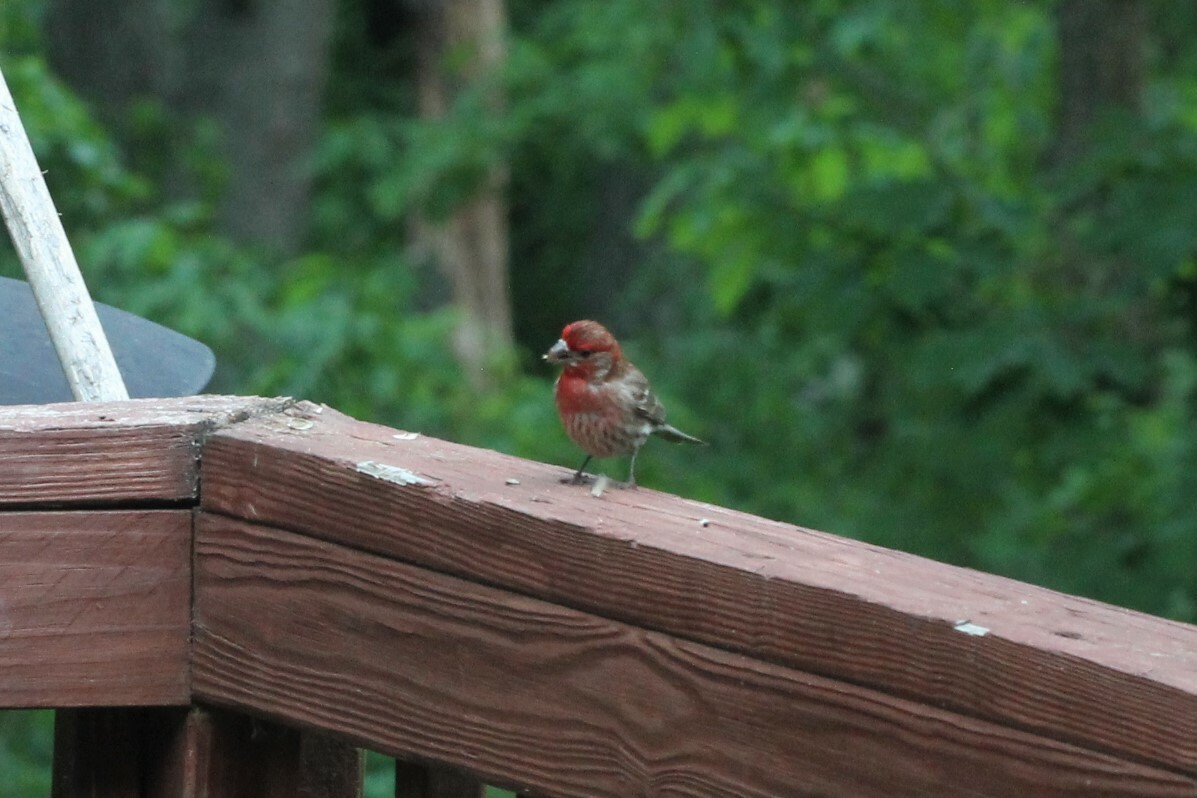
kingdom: Animalia
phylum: Chordata
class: Aves
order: Passeriformes
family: Fringillidae
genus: Haemorhous
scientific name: Haemorhous mexicanus
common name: House finch
